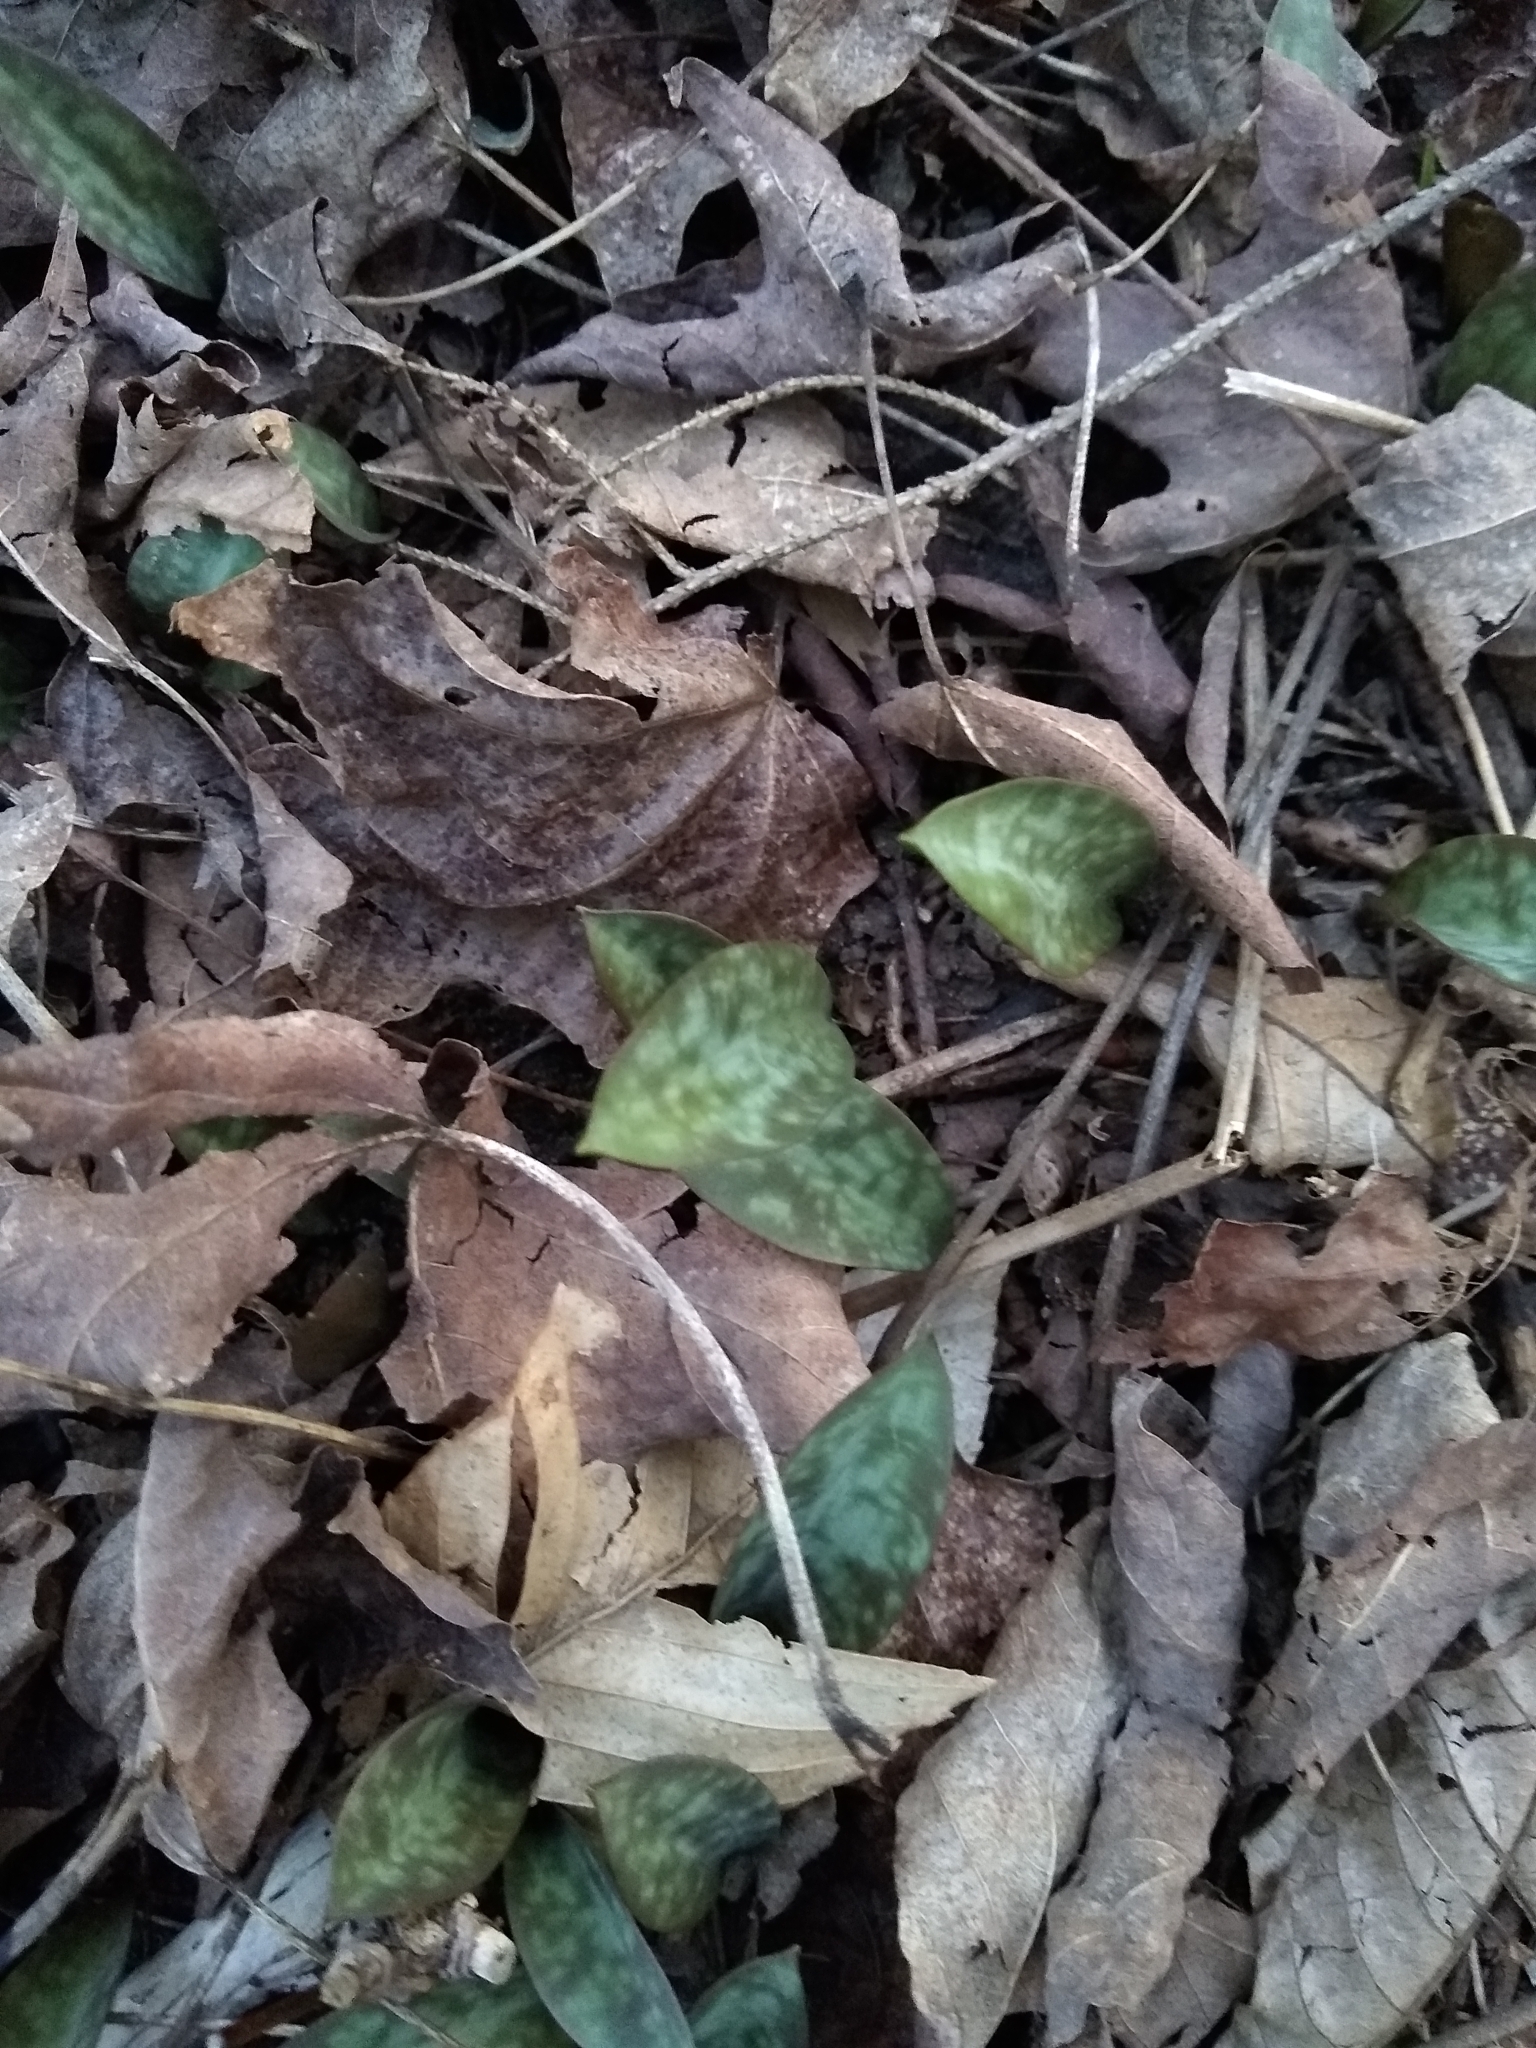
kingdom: Plantae
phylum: Tracheophyta
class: Liliopsida
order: Liliales
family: Liliaceae
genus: Erythronium
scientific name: Erythronium americanum
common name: Yellow adder's-tongue
